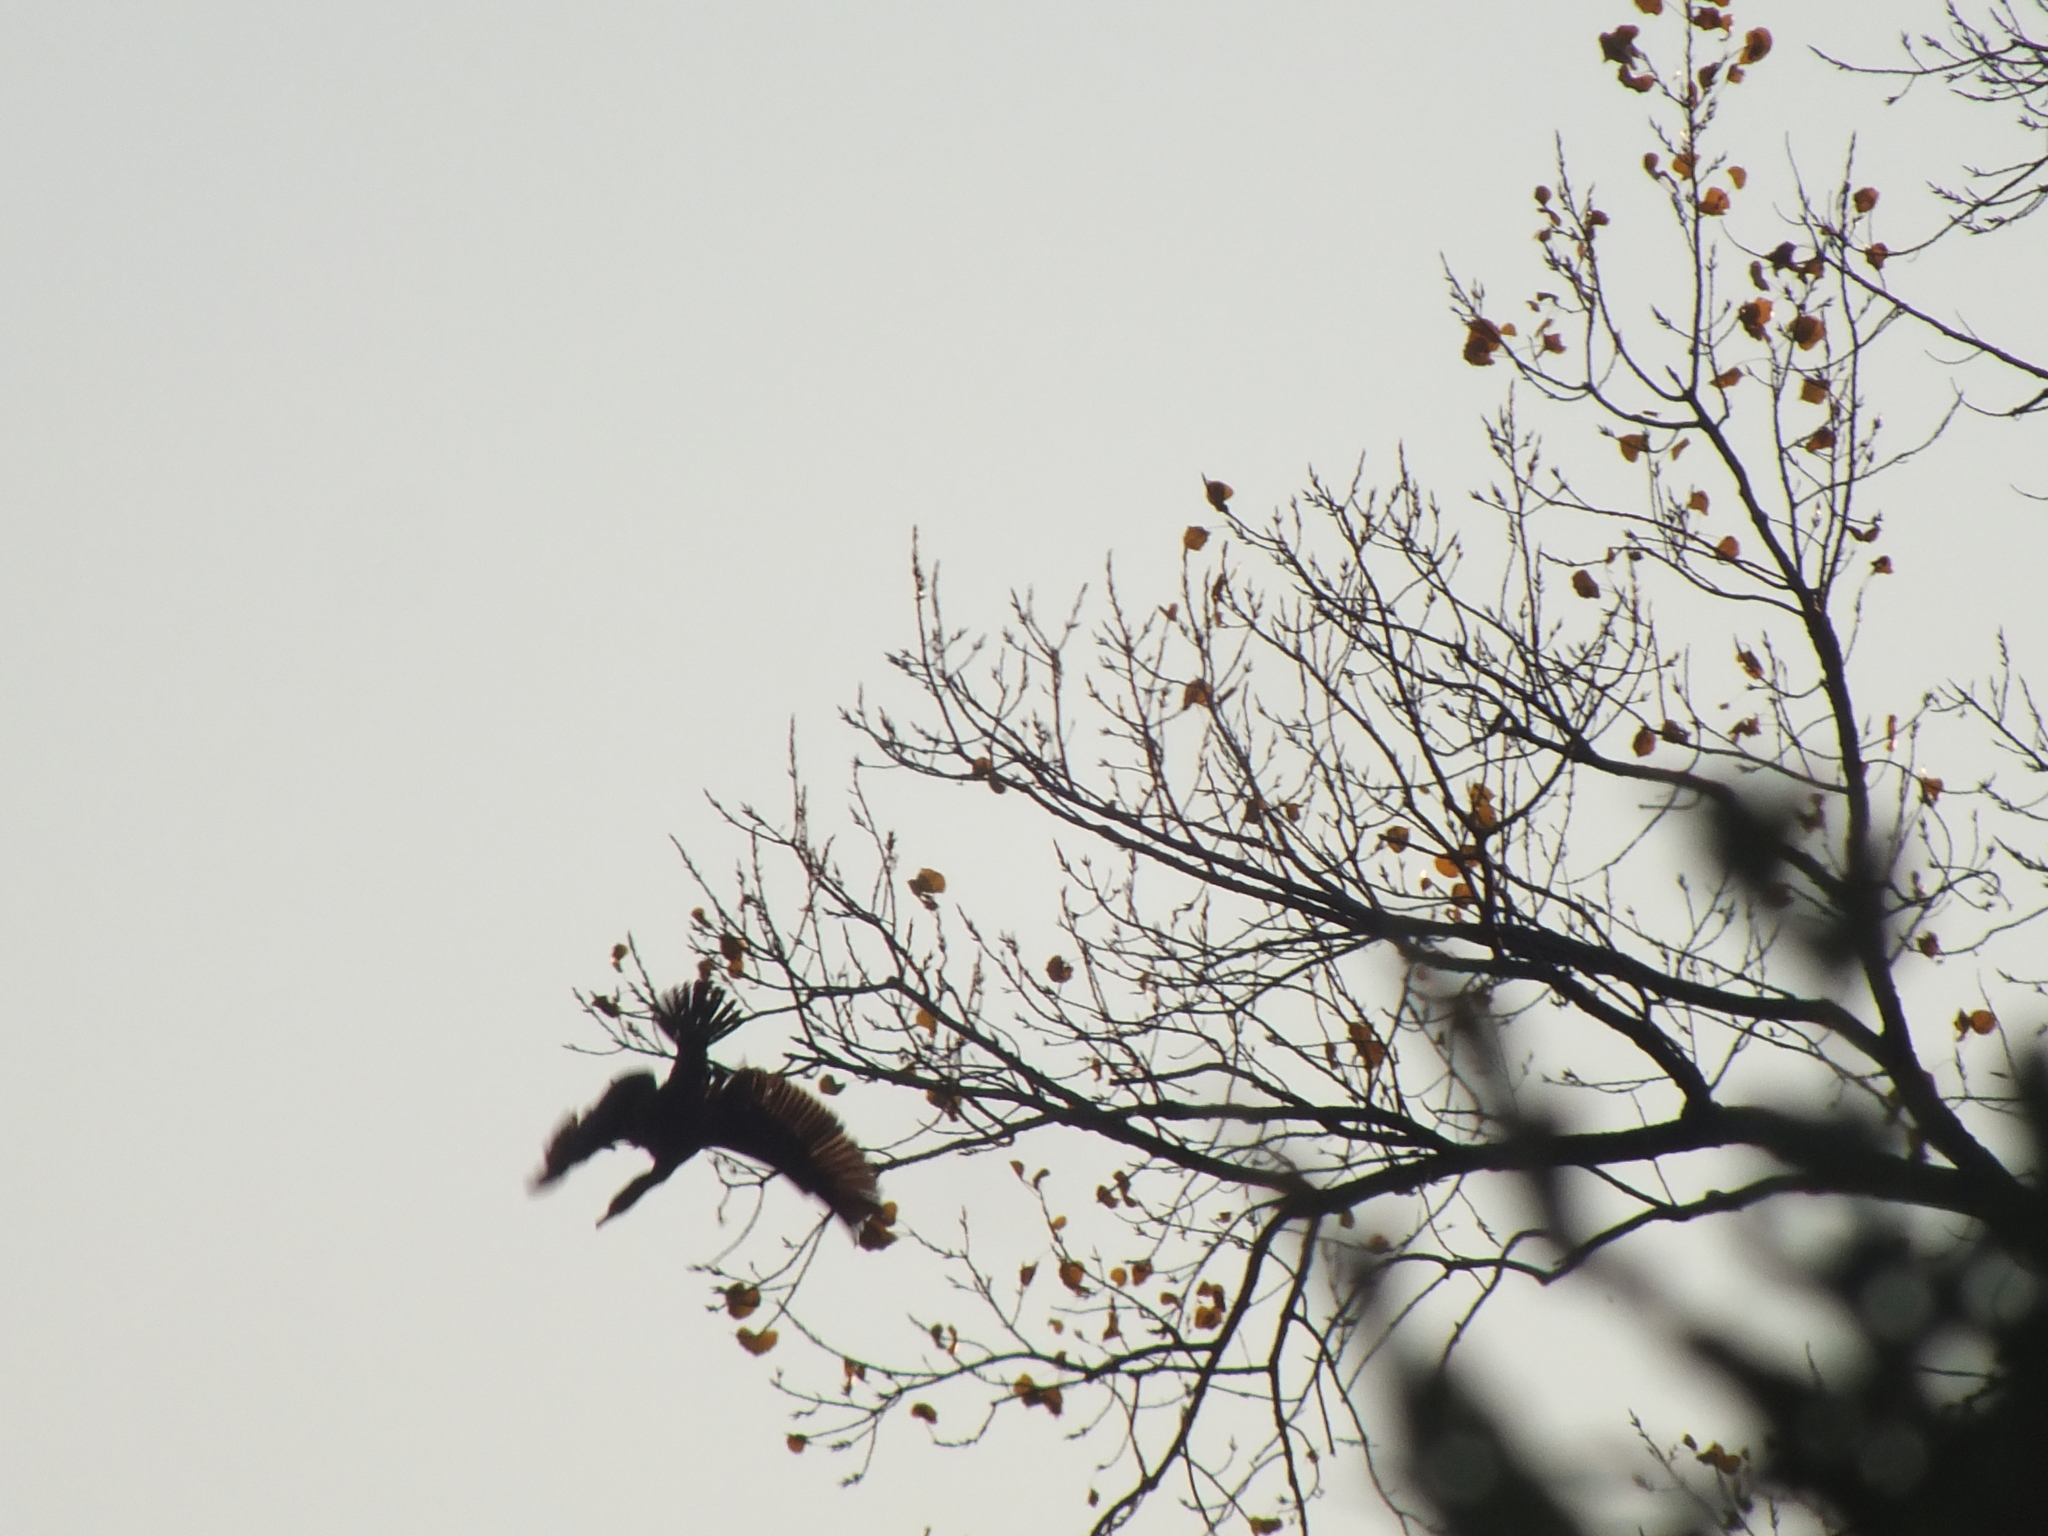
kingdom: Animalia
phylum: Chordata
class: Aves
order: Suliformes
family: Phalacrocoracidae
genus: Phalacrocorax
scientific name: Phalacrocorax auritus
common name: Double-crested cormorant
